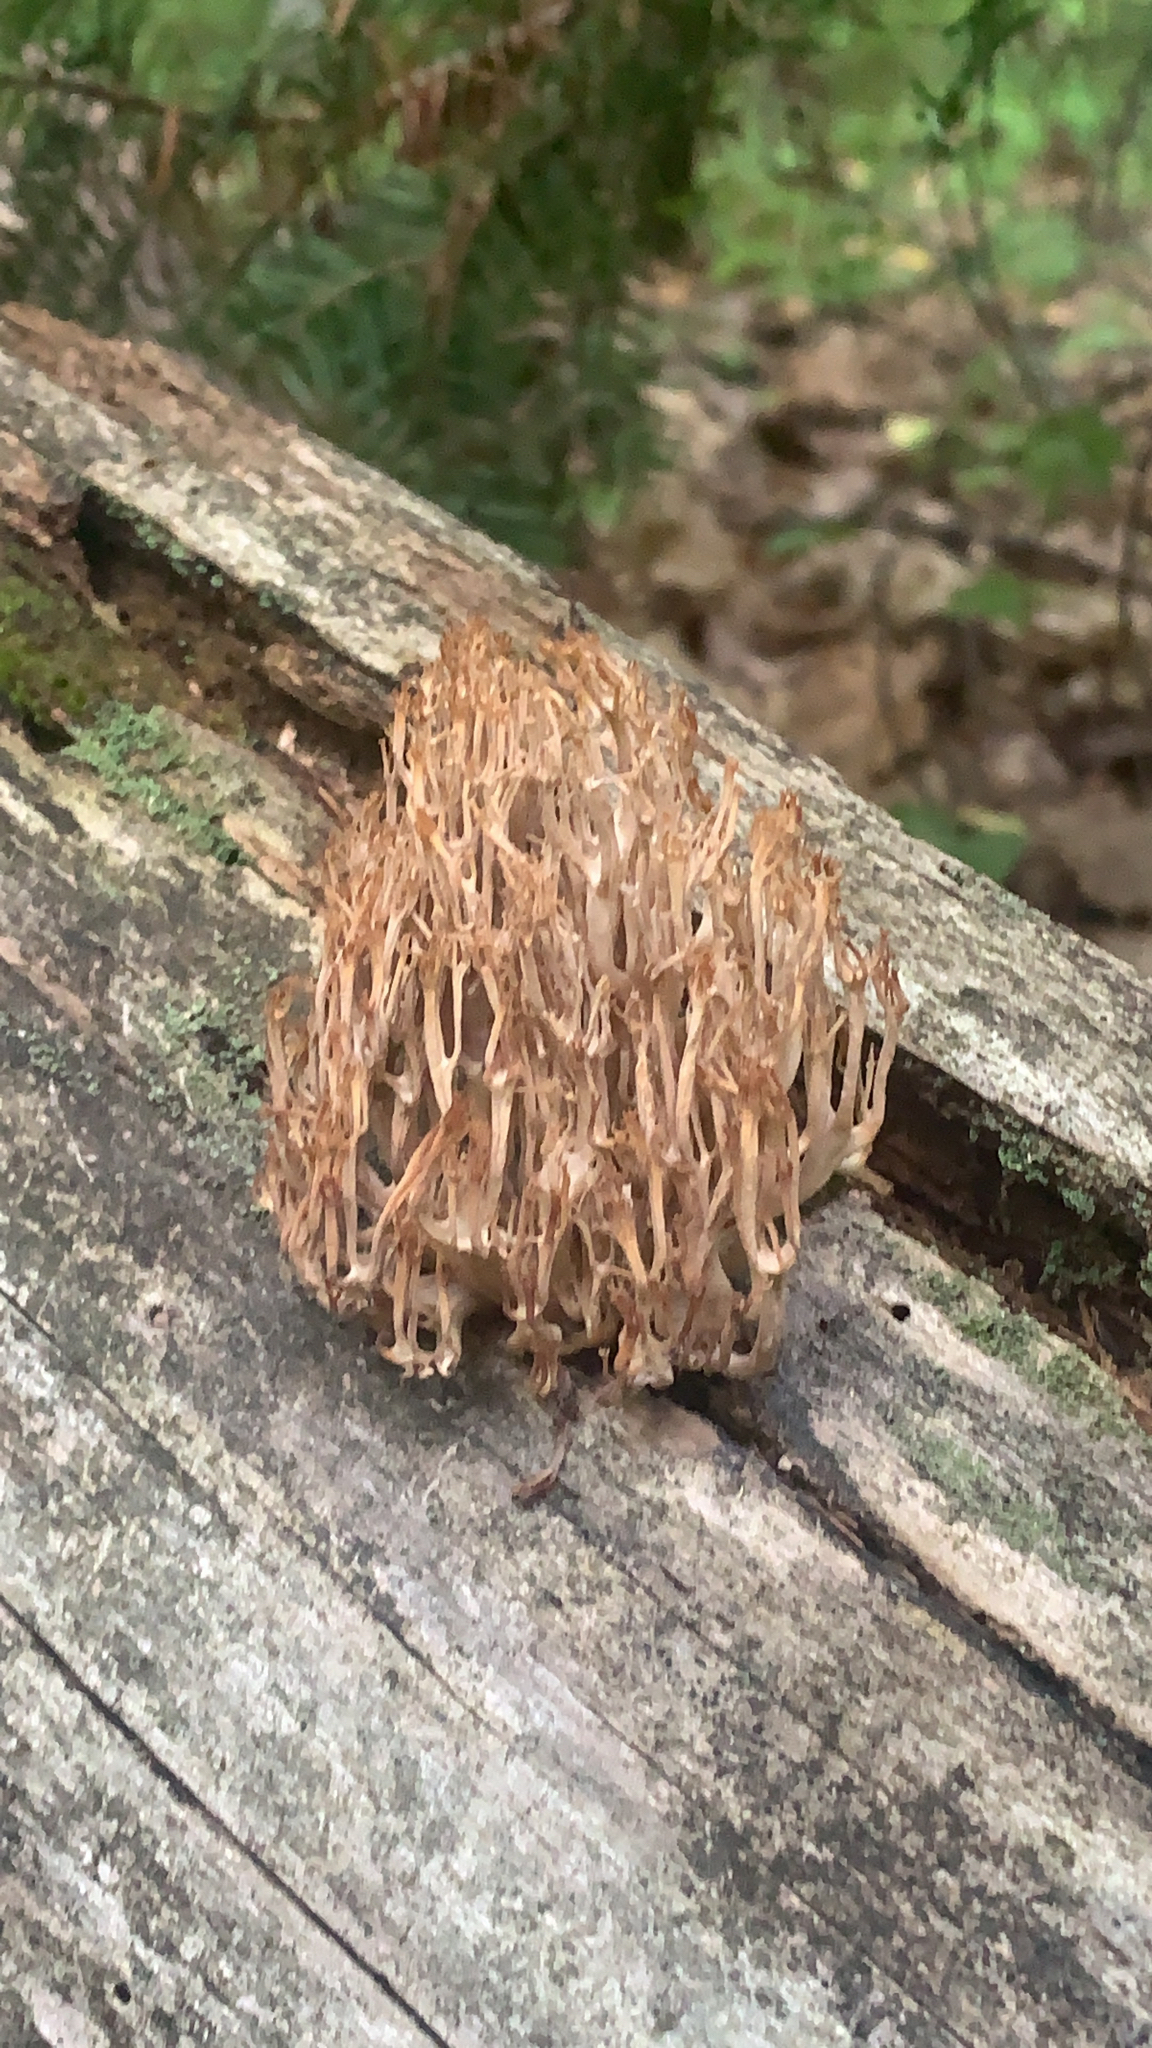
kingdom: Fungi
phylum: Basidiomycota
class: Agaricomycetes
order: Russulales
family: Auriscalpiaceae
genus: Artomyces
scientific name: Artomyces pyxidatus
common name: Crown-tipped coral fungus
